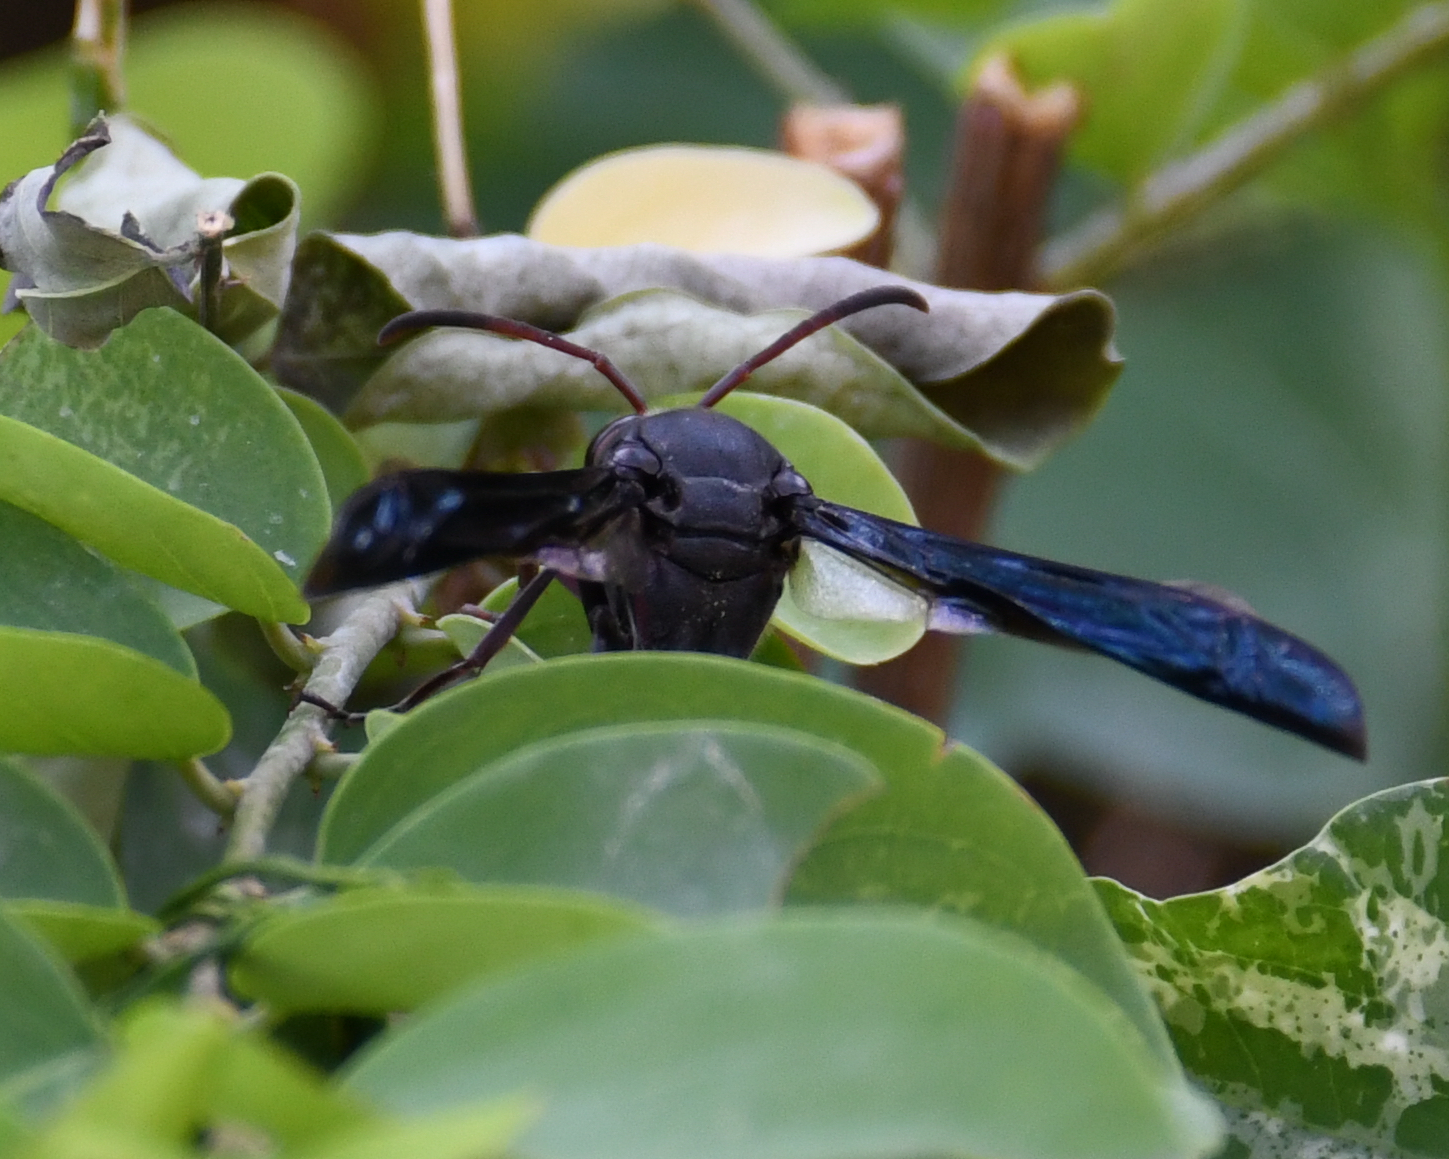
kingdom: Animalia
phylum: Arthropoda
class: Insecta
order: Hymenoptera
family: Eumenidae
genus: Delta
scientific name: Delta emarginatum
